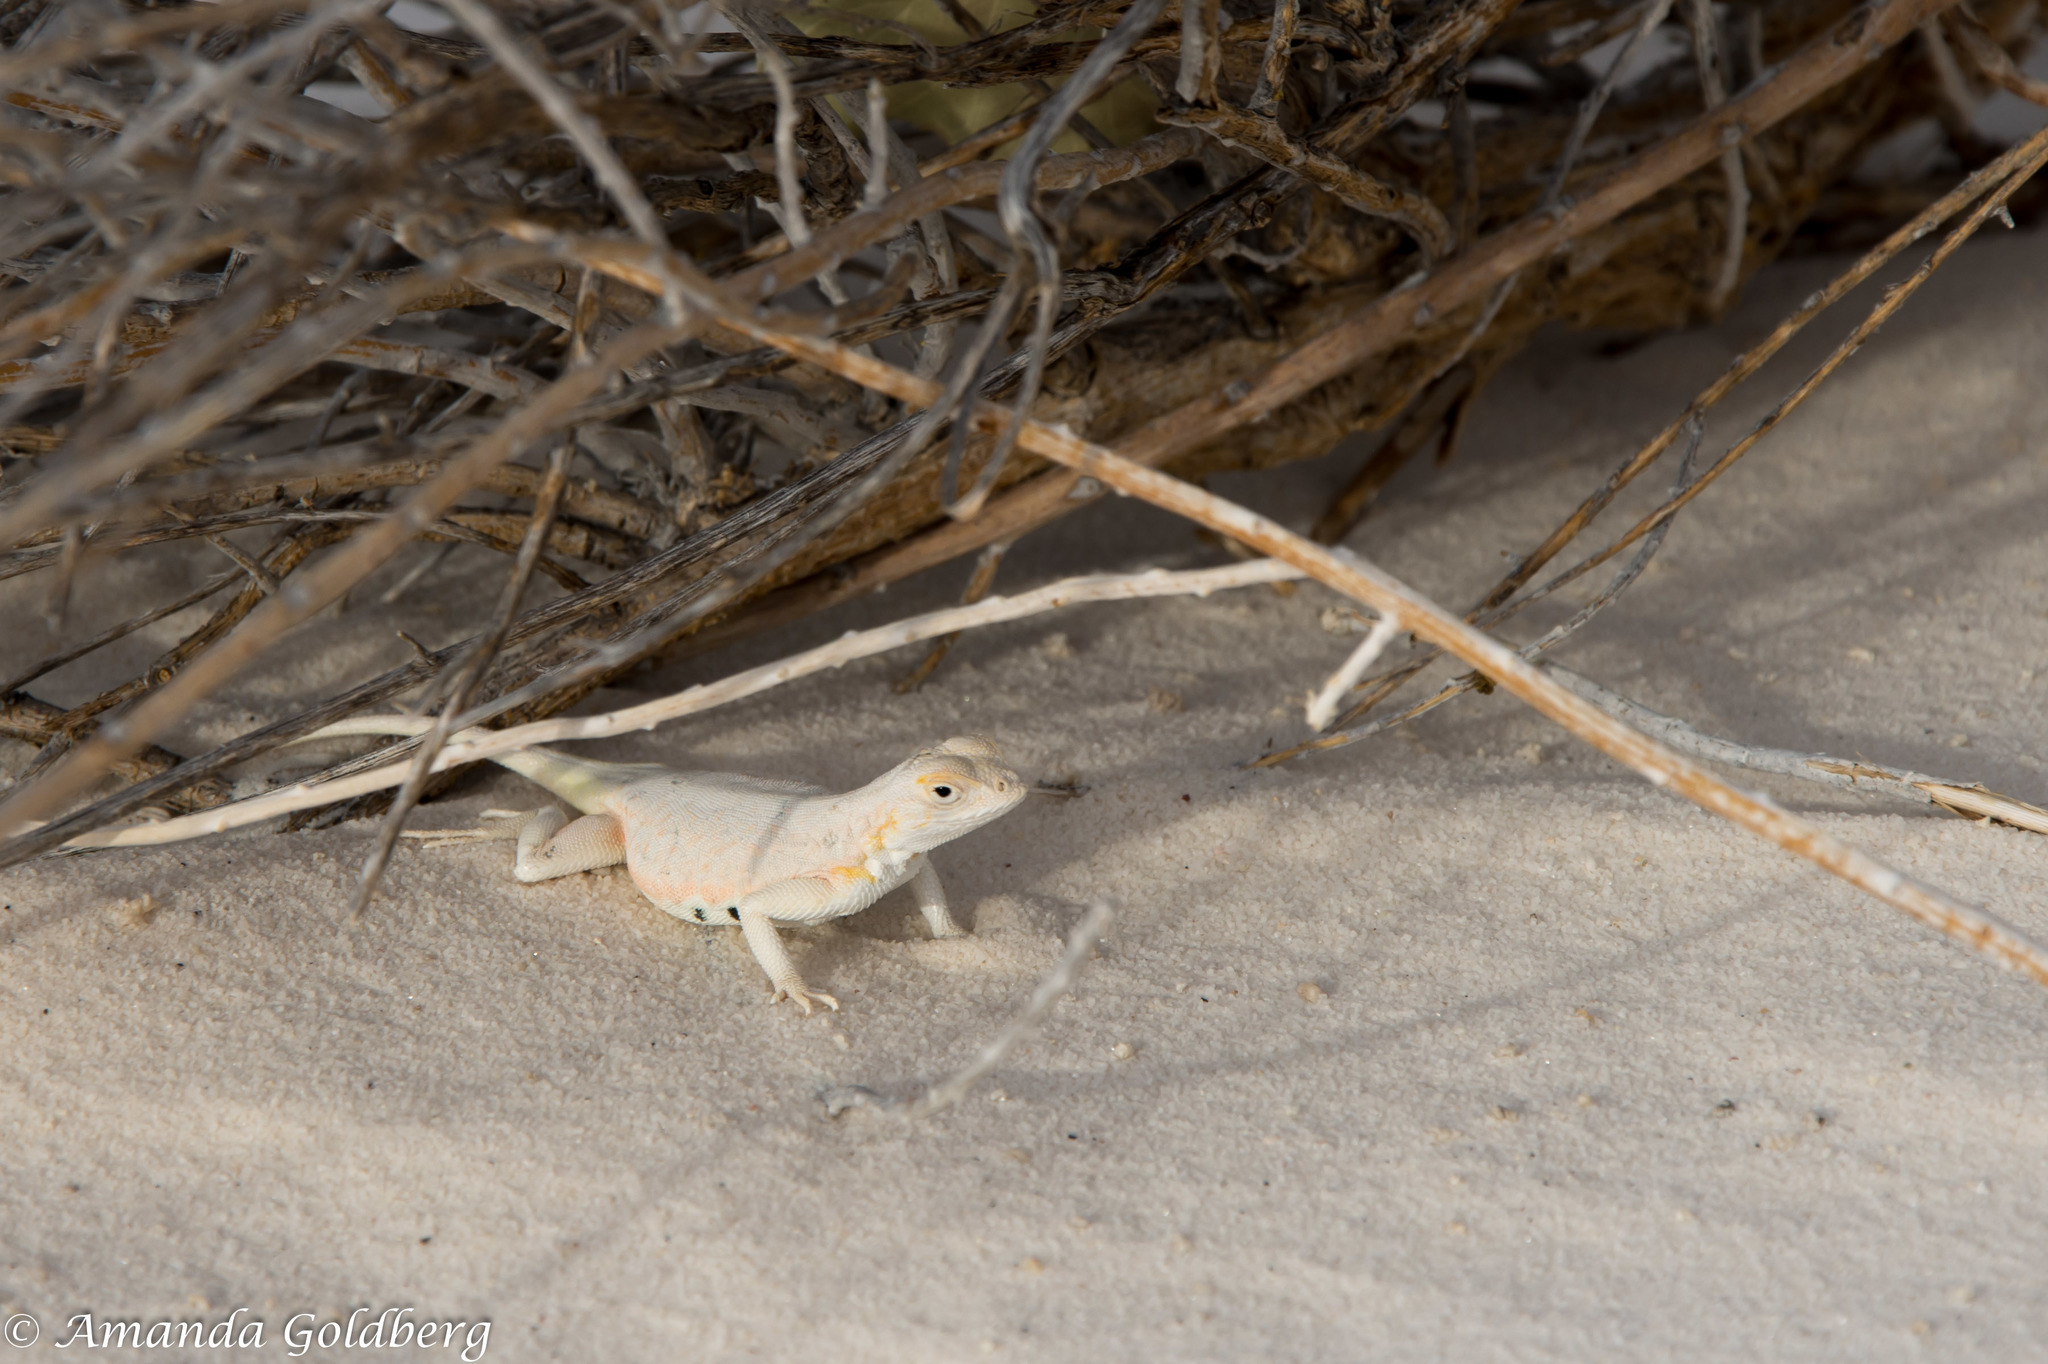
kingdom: Animalia
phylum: Chordata
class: Squamata
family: Phrynosomatidae
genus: Holbrookia
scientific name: Holbrookia maculata
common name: Lesser earless lizard
